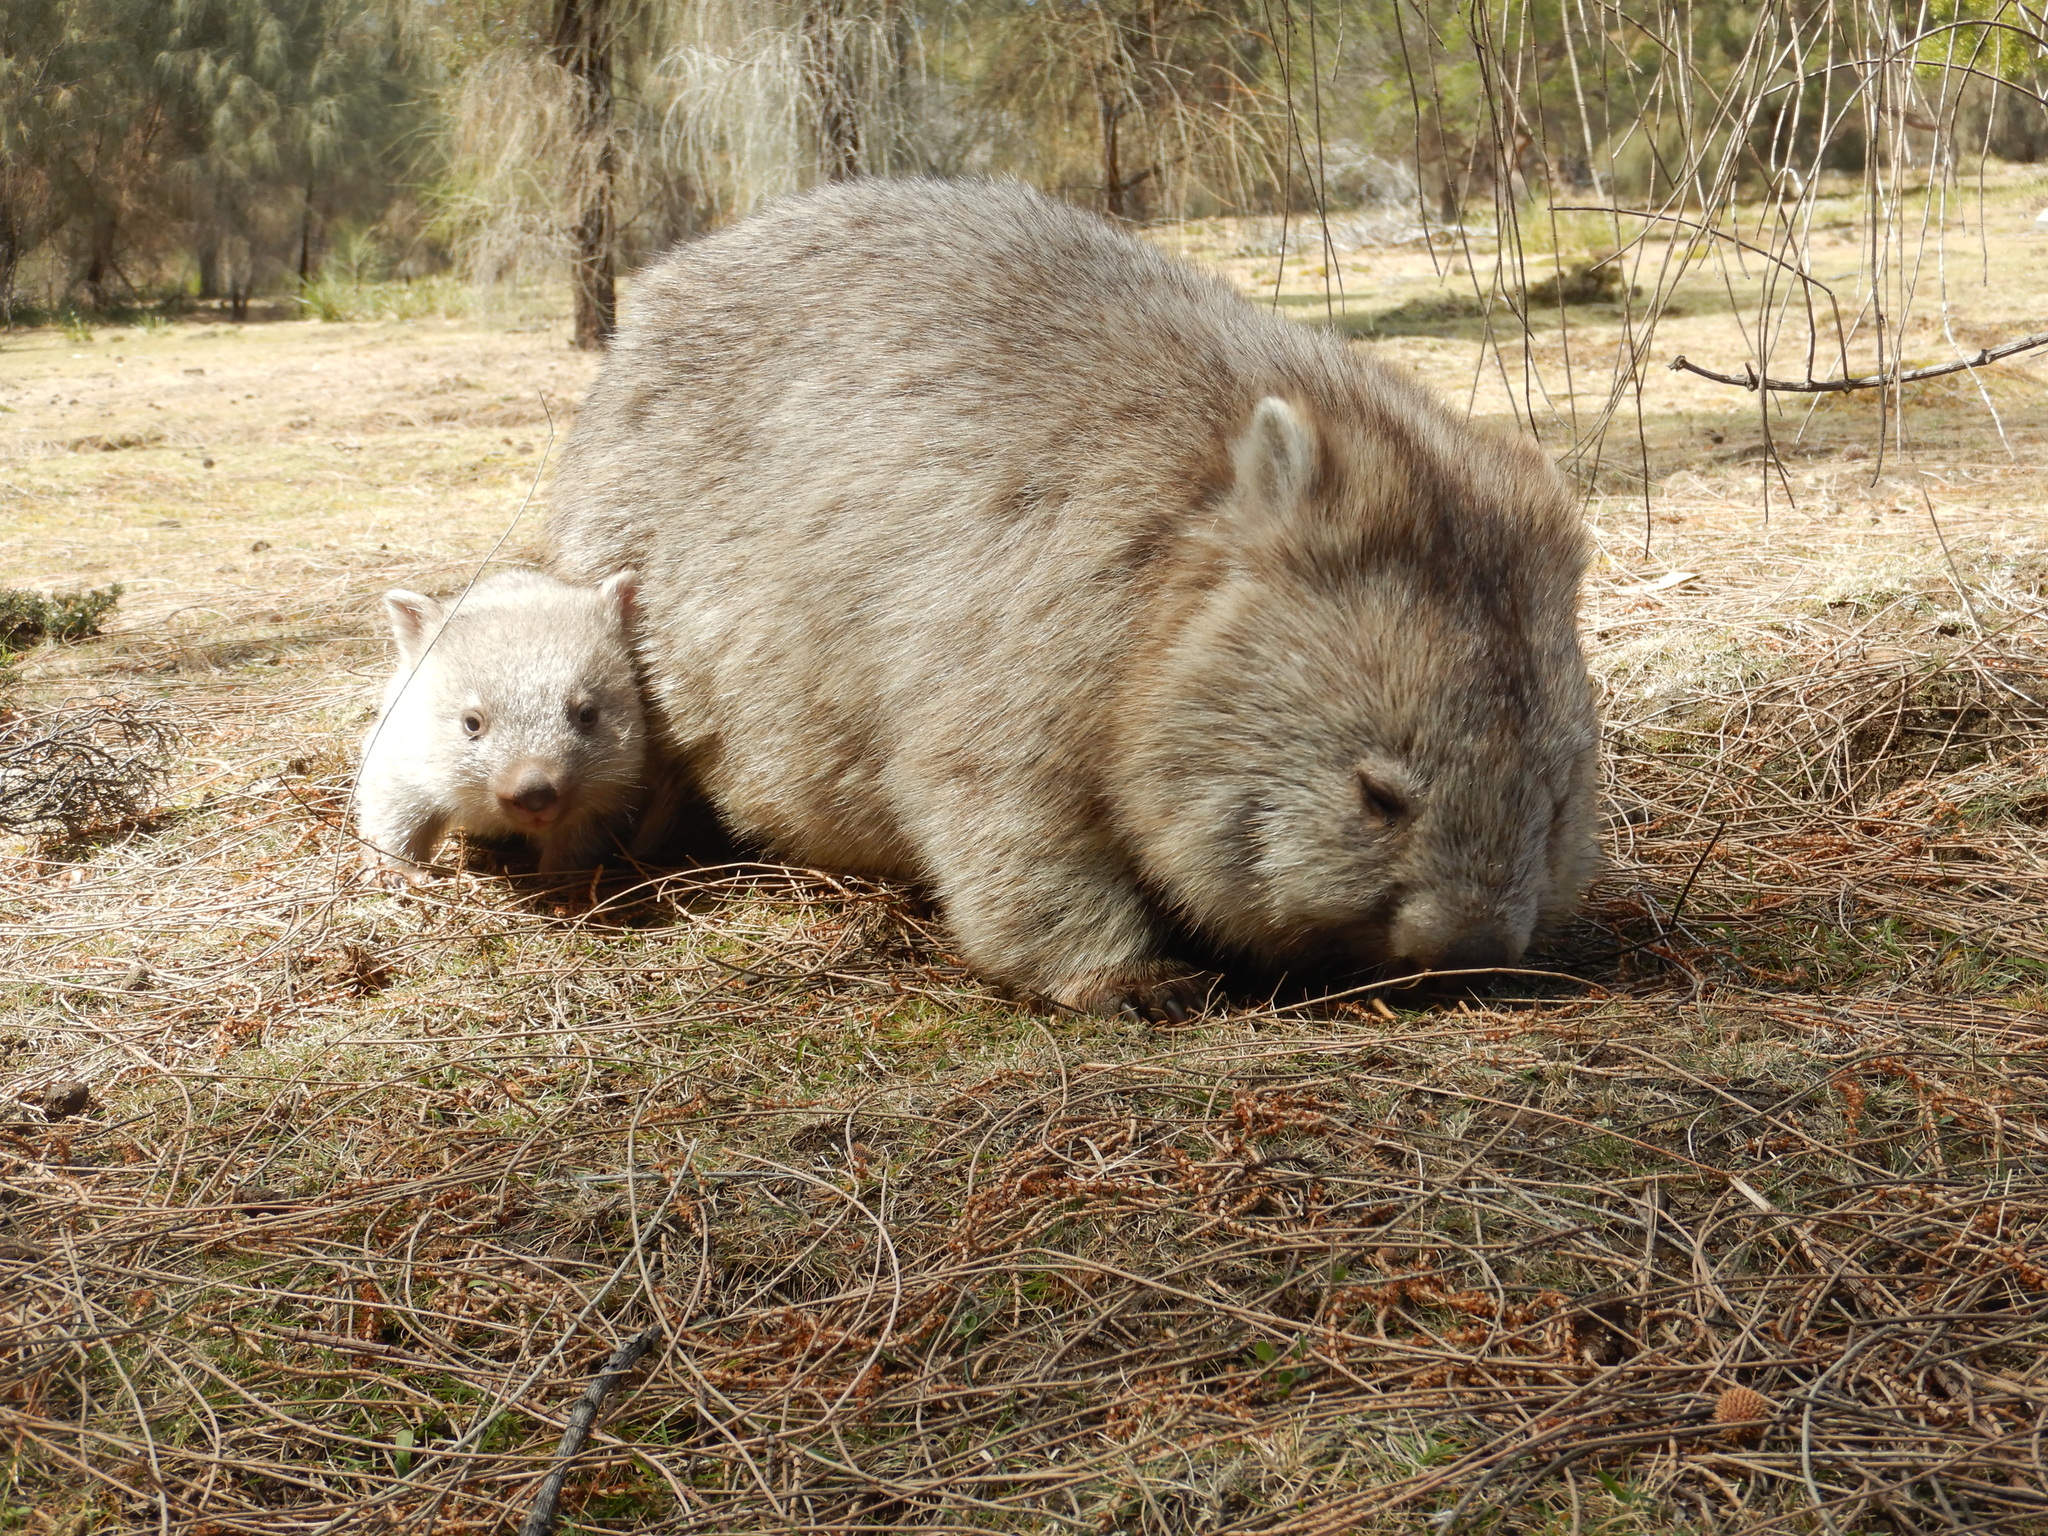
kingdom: Animalia
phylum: Chordata
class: Mammalia
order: Diprotodontia
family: Vombatidae
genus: Vombatus
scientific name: Vombatus ursinus
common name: Common wombat
